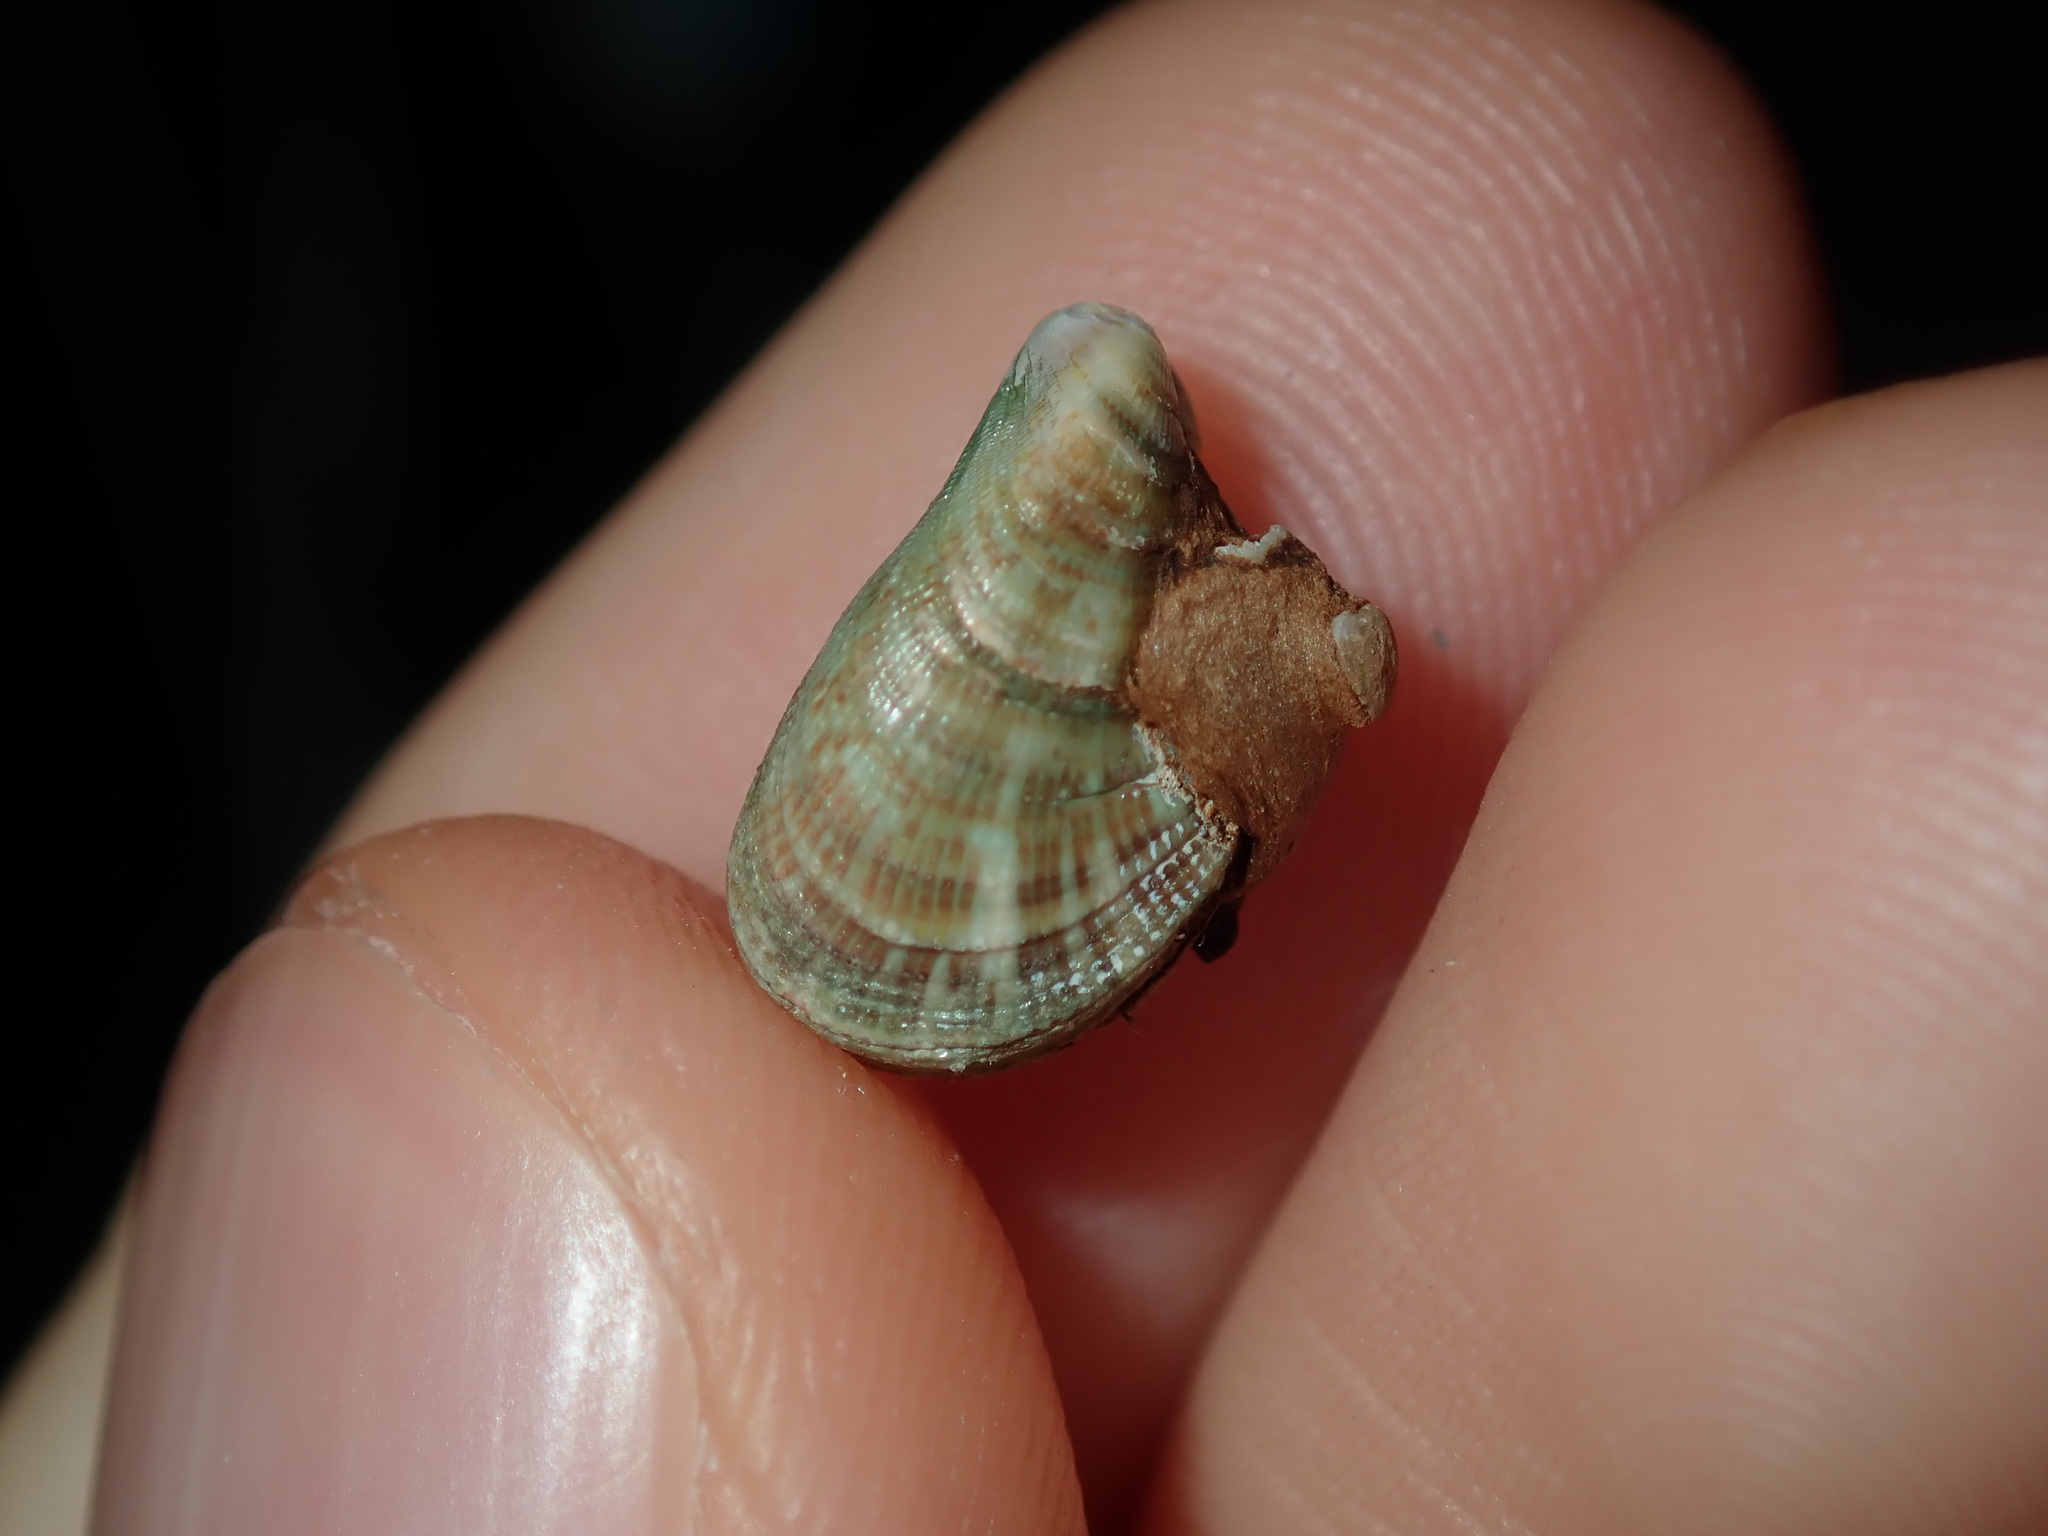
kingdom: Animalia
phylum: Mollusca
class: Bivalvia
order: Mytilida
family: Mytilidae
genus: Septifer
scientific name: Septifer cumingii
